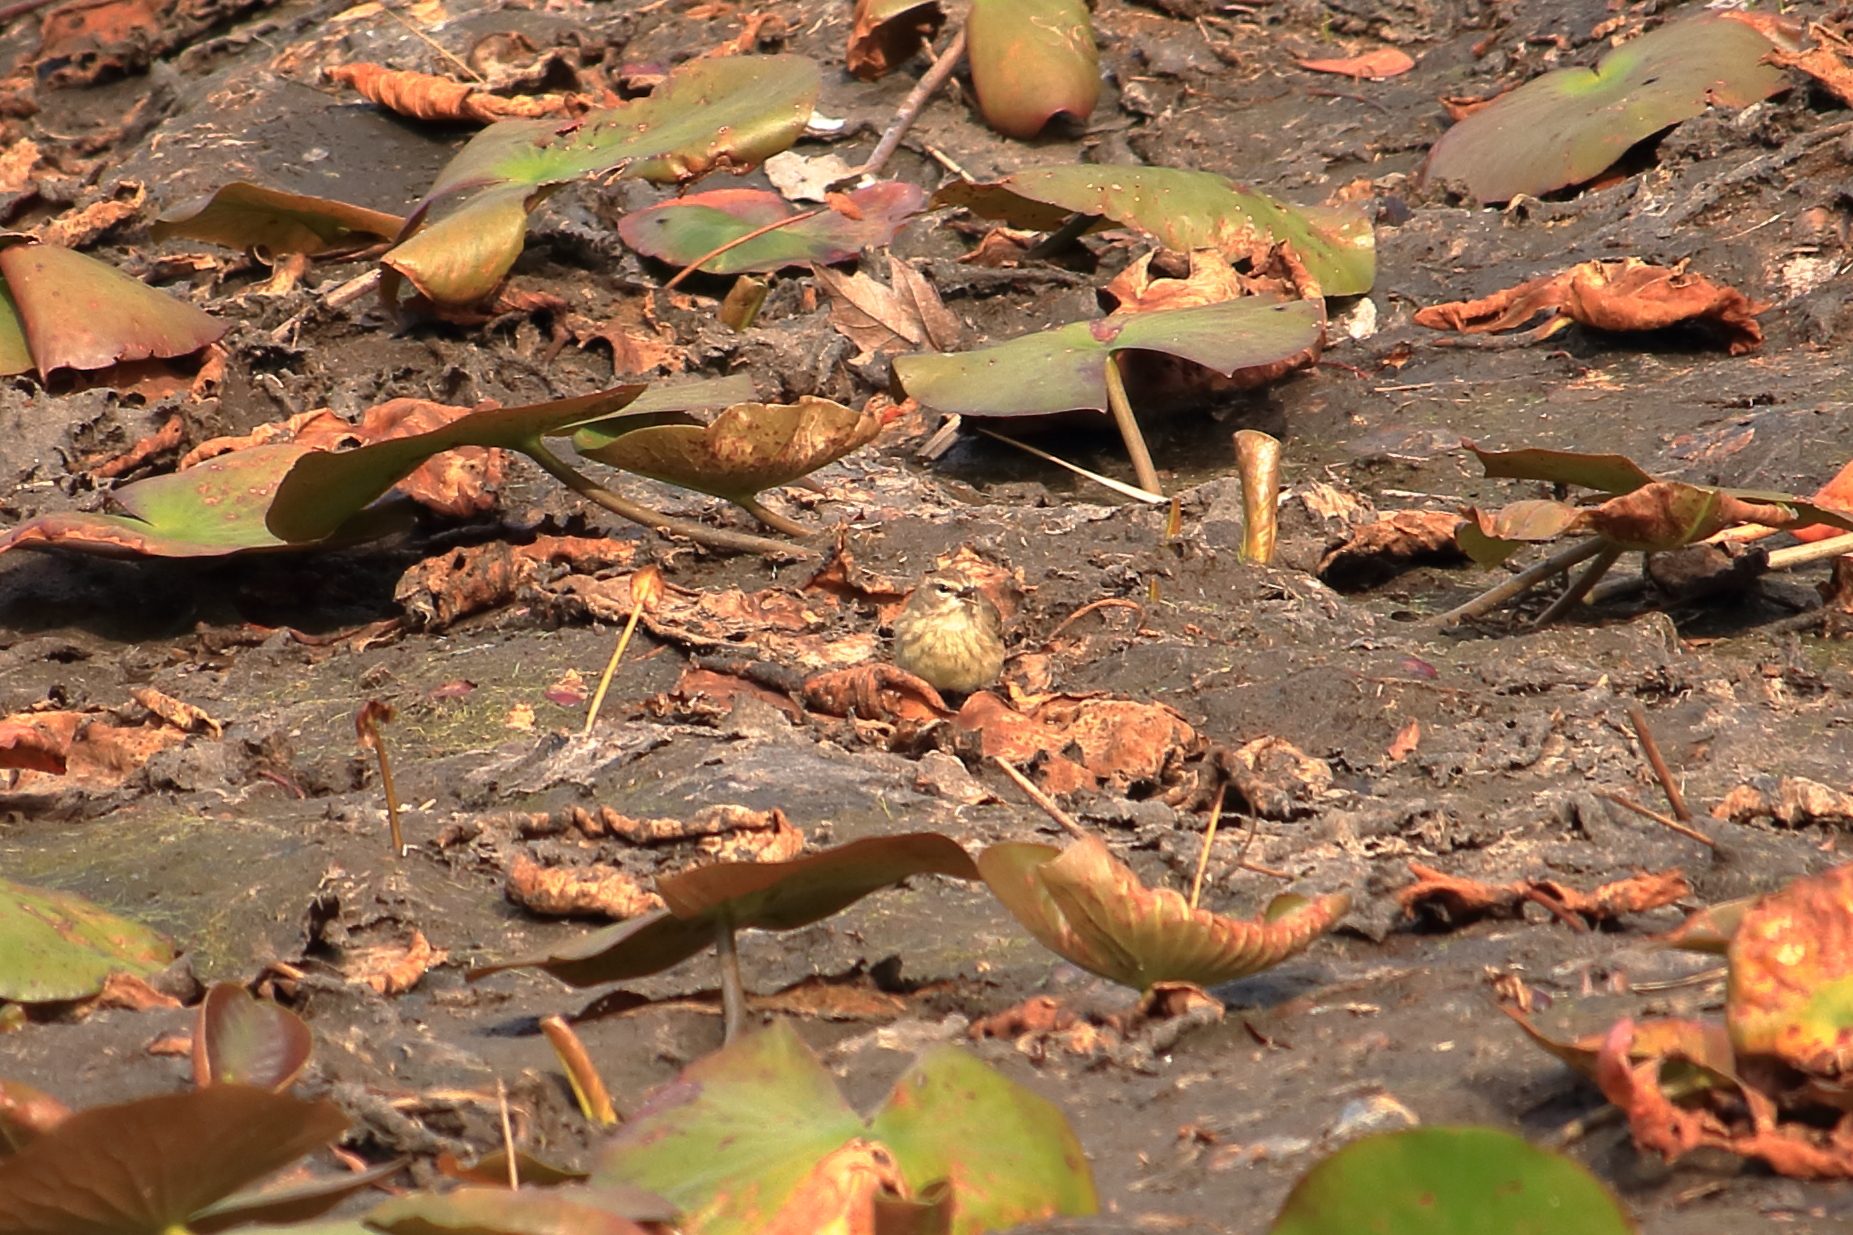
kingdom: Animalia
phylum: Chordata
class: Aves
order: Passeriformes
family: Parulidae
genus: Setophaga
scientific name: Setophaga palmarum
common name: Palm warbler
